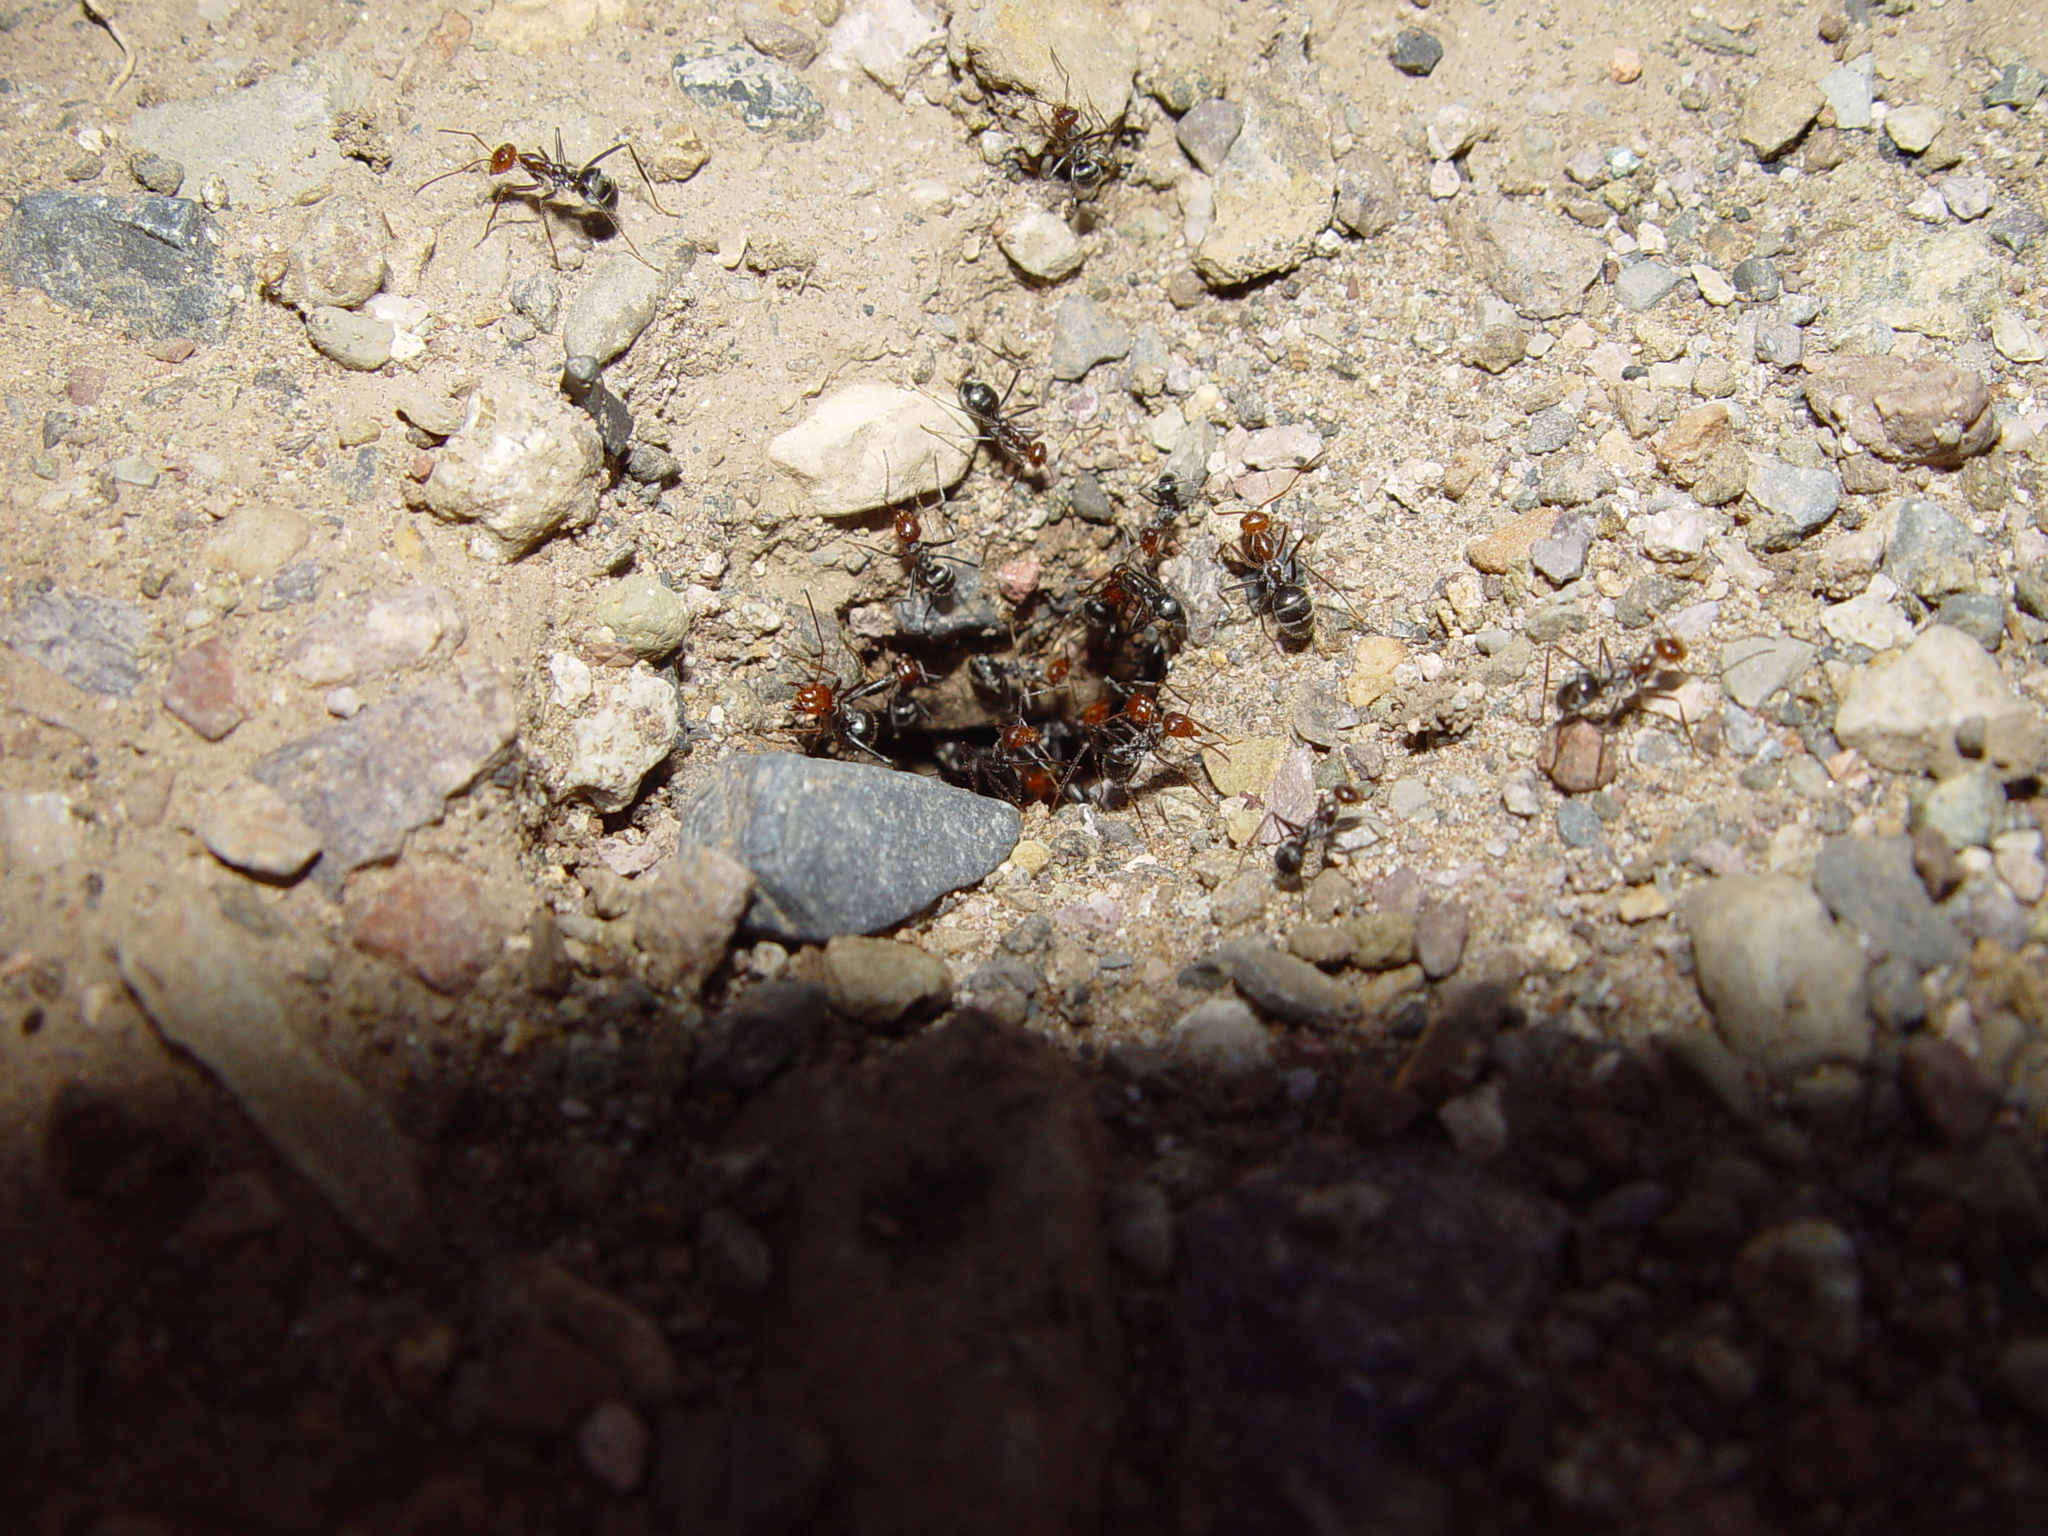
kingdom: Animalia
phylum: Arthropoda
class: Insecta
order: Hymenoptera
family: Formicidae
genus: Myrmecocystus
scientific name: Myrmecocystus mendax
